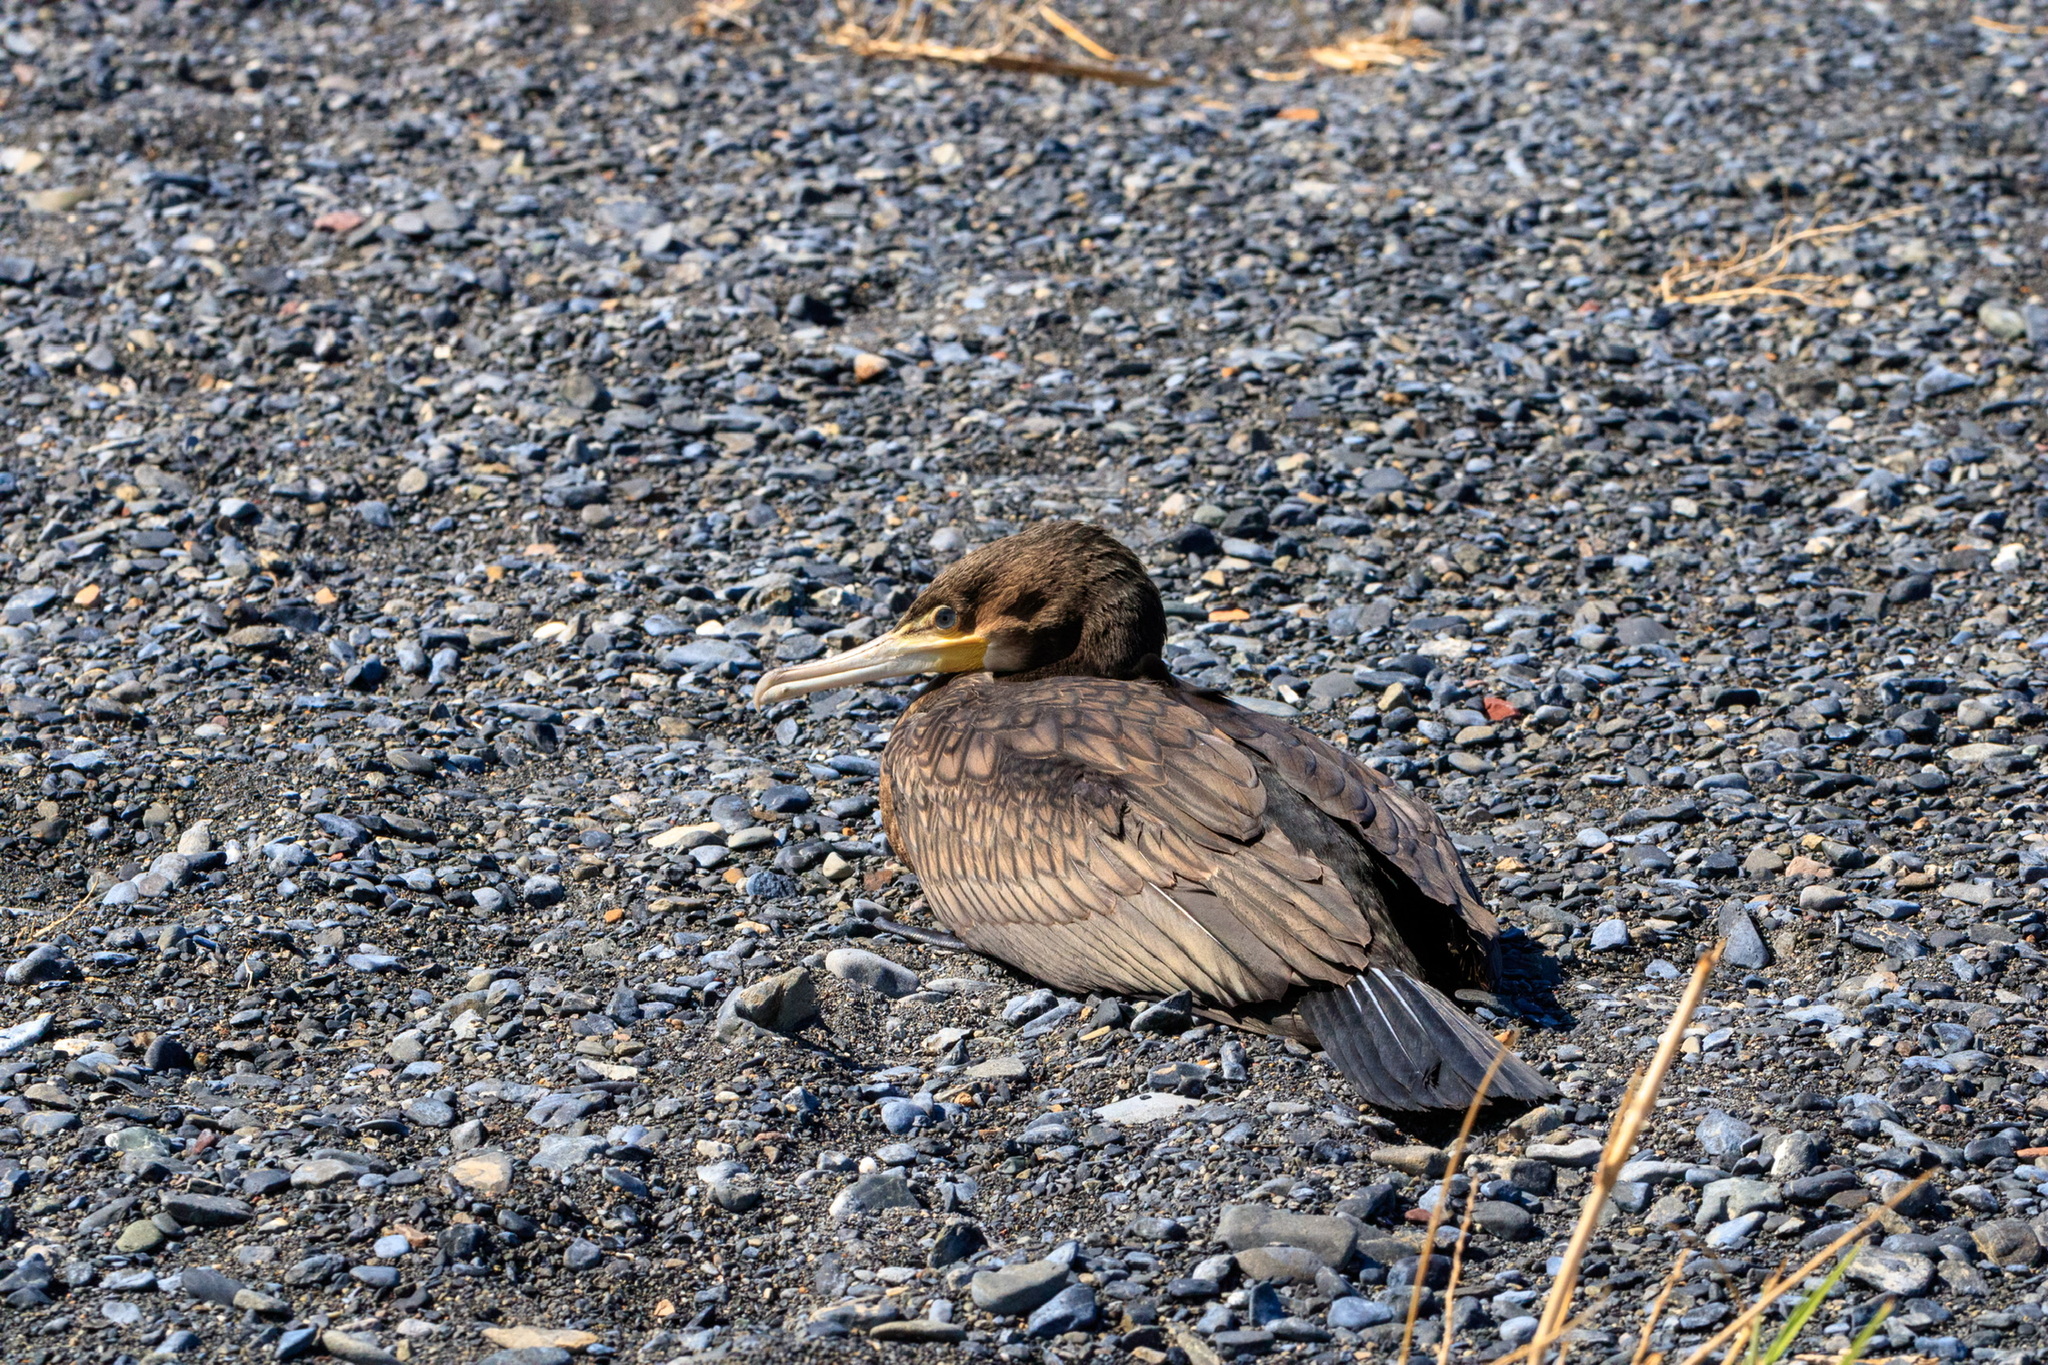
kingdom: Animalia
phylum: Chordata
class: Aves
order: Suliformes
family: Phalacrocoracidae
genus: Phalacrocorax
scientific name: Phalacrocorax carbo
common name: Great cormorant
